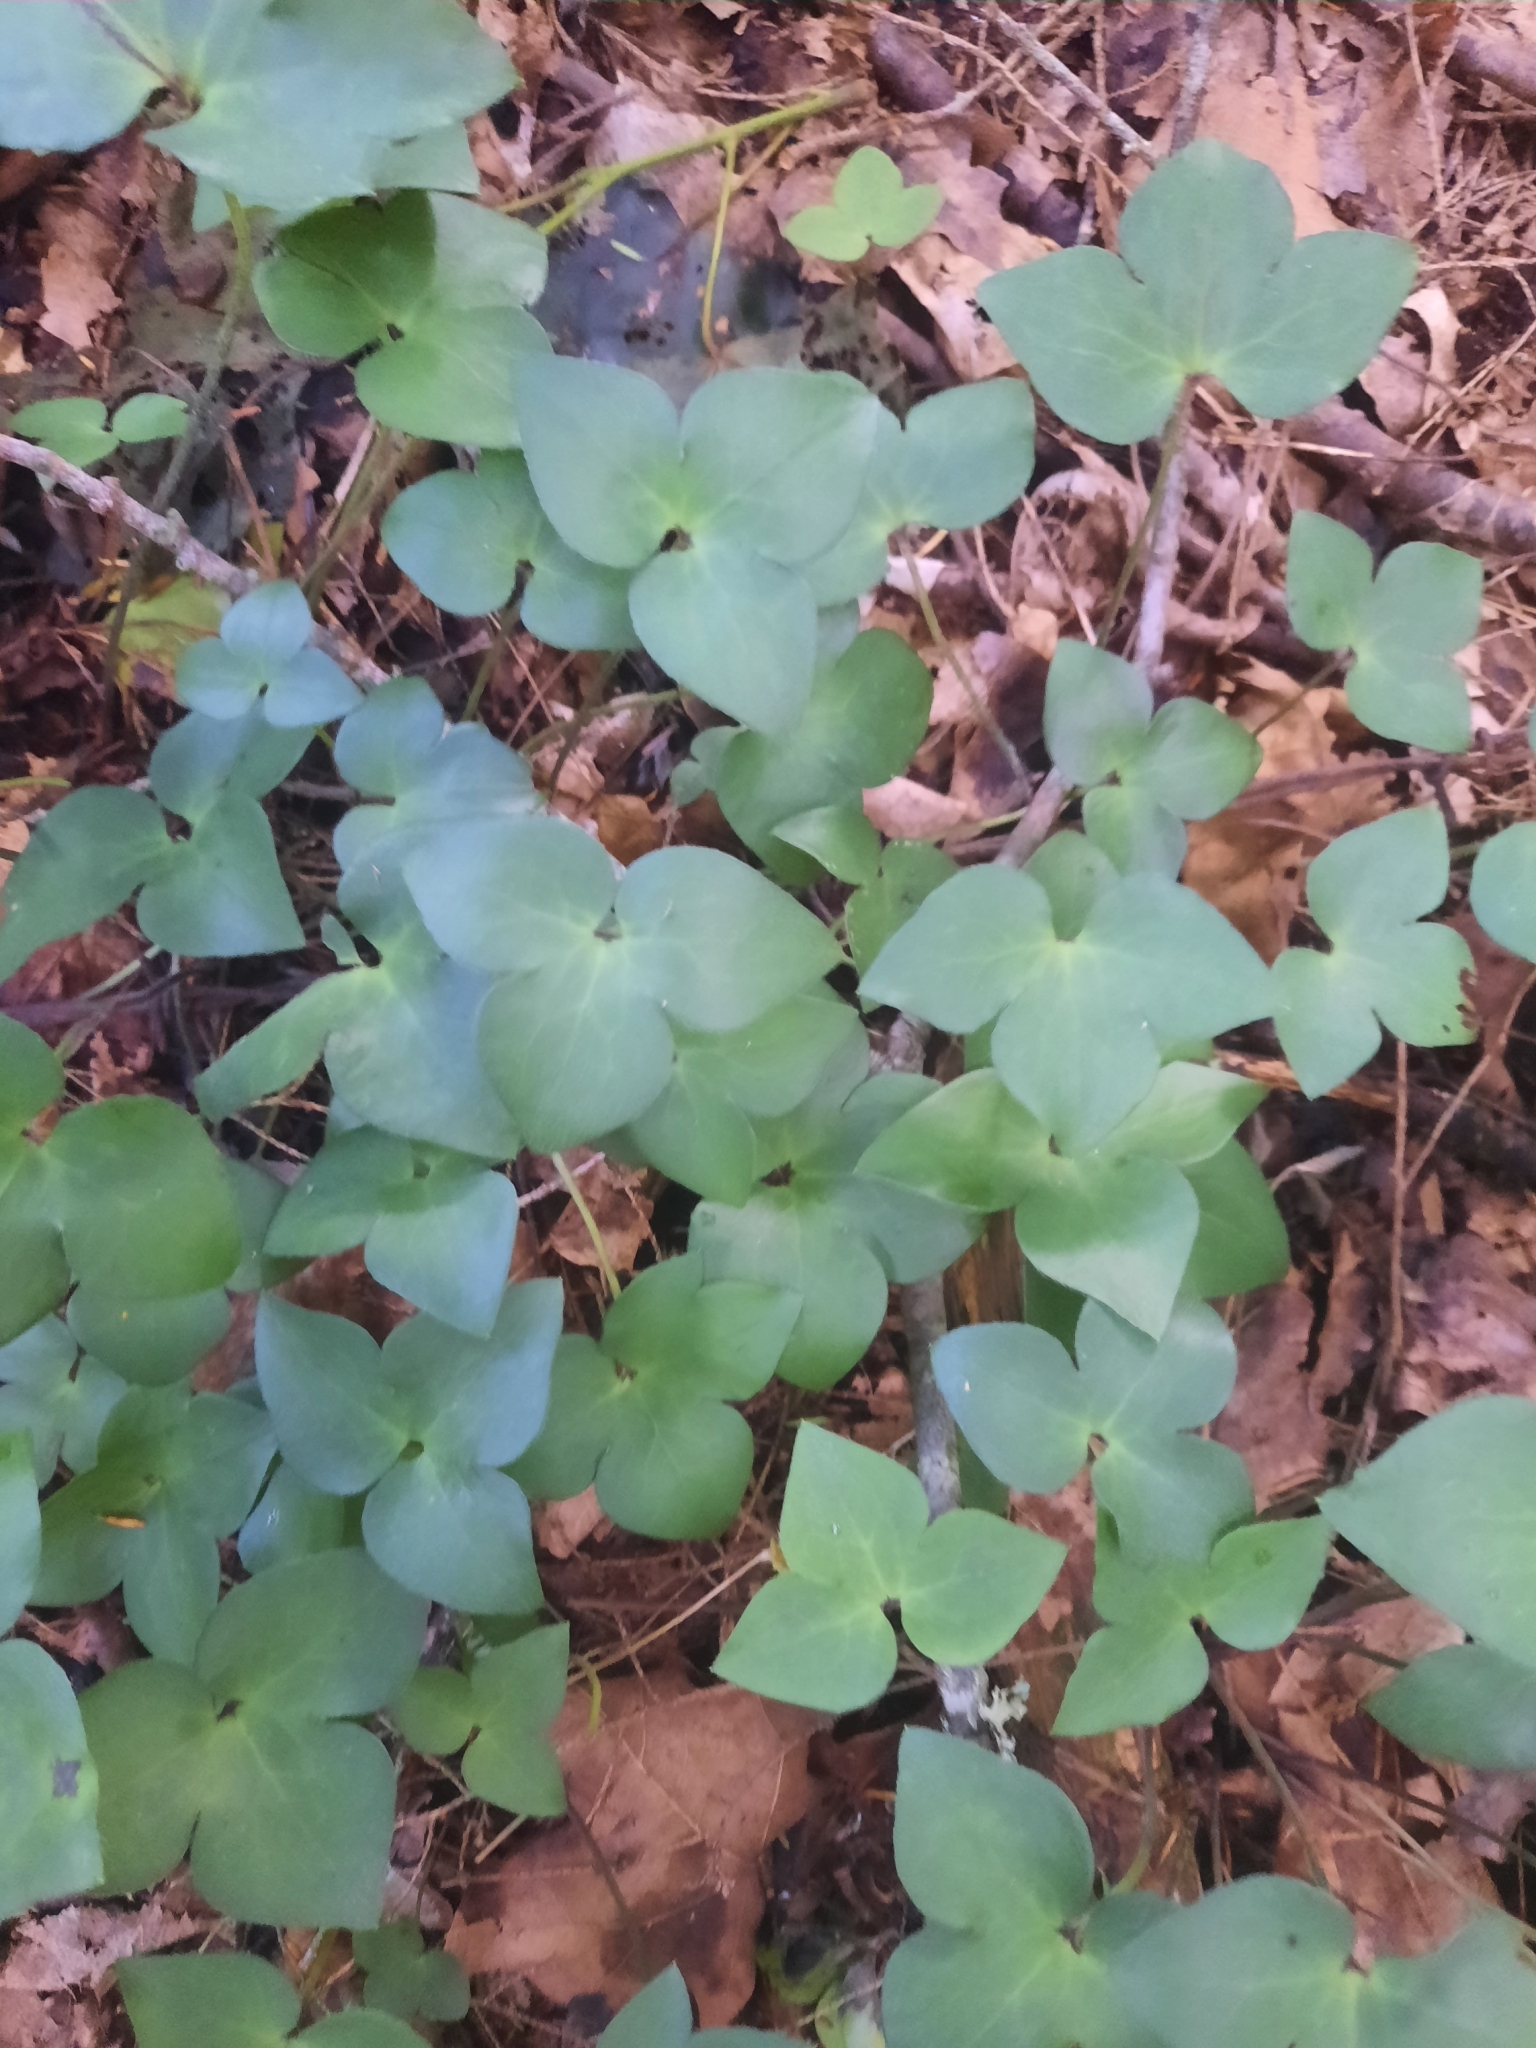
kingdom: Plantae
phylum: Tracheophyta
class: Magnoliopsida
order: Ranunculales
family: Ranunculaceae
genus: Hepatica
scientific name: Hepatica acutiloba
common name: Sharp-lobed hepatica
